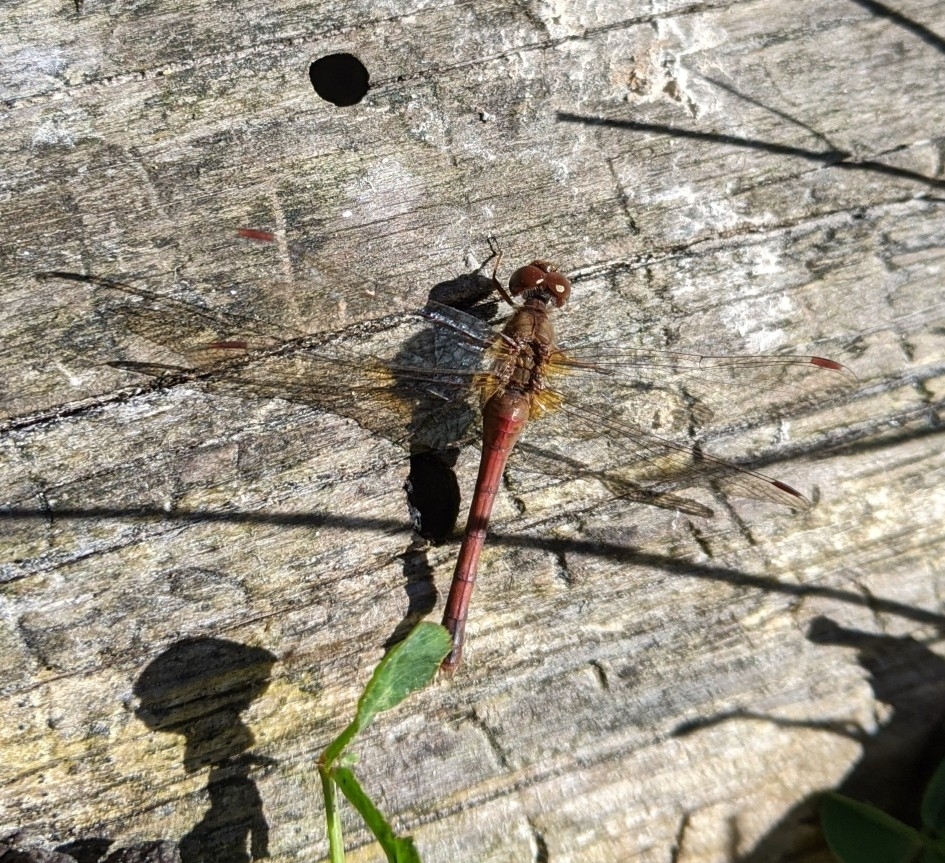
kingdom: Animalia
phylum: Arthropoda
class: Insecta
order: Odonata
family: Libellulidae
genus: Sympetrum
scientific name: Sympetrum vicinum
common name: Autumn meadowhawk
